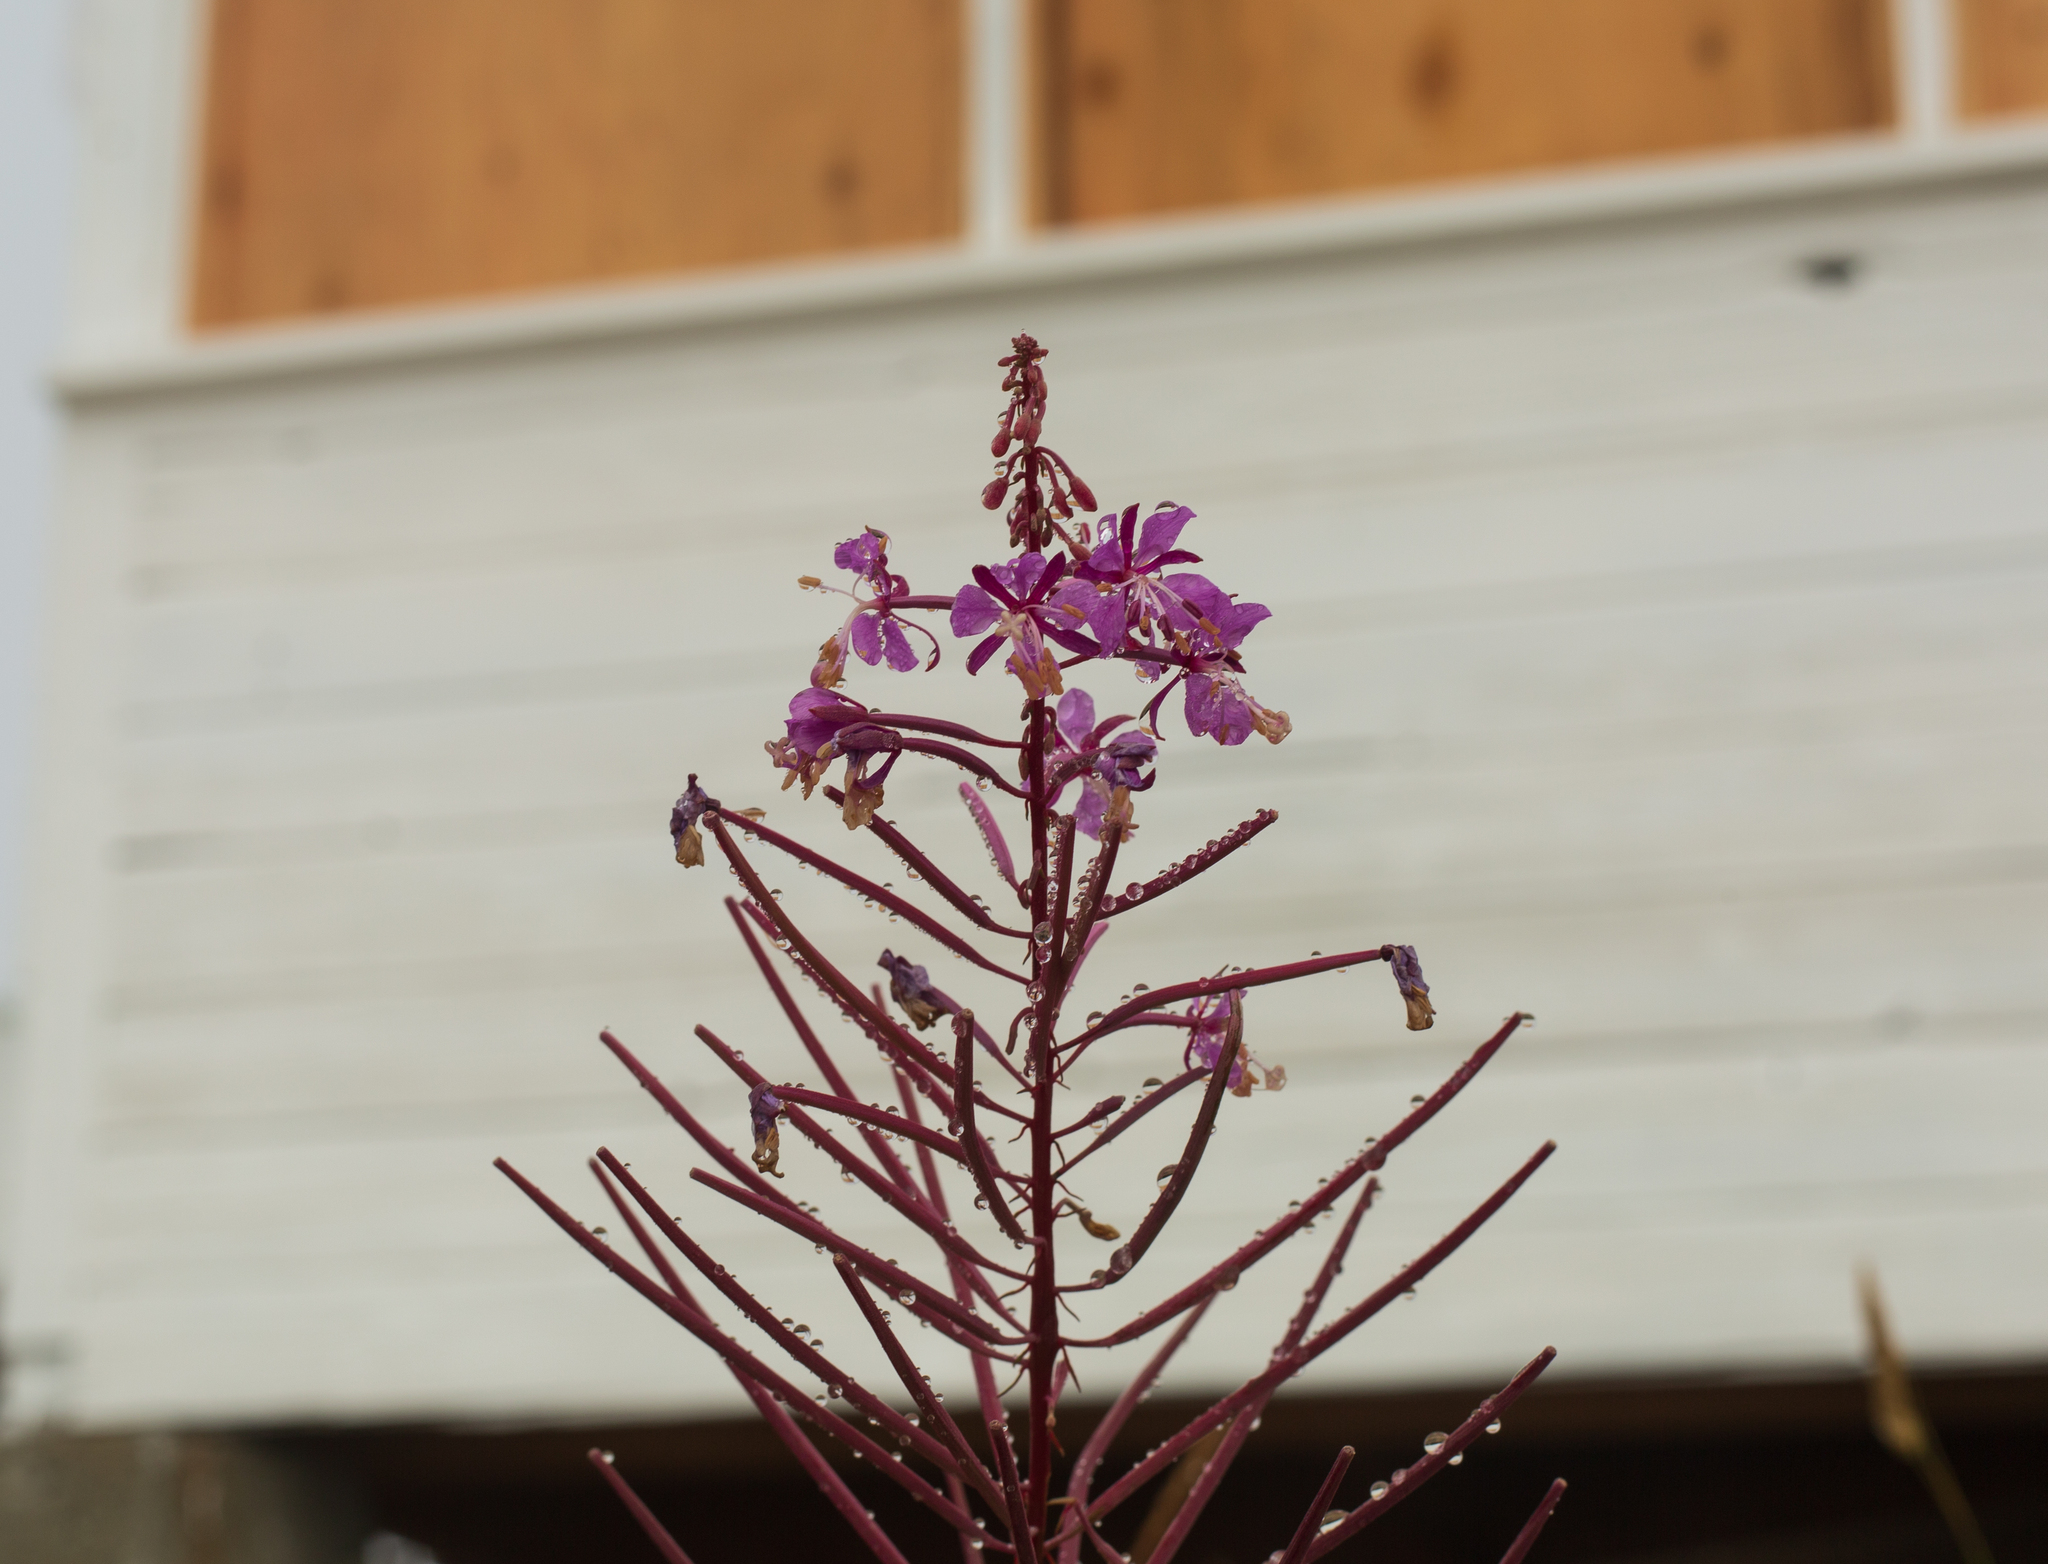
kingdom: Plantae
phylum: Tracheophyta
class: Magnoliopsida
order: Myrtales
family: Onagraceae
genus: Chamaenerion
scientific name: Chamaenerion angustifolium
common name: Fireweed
